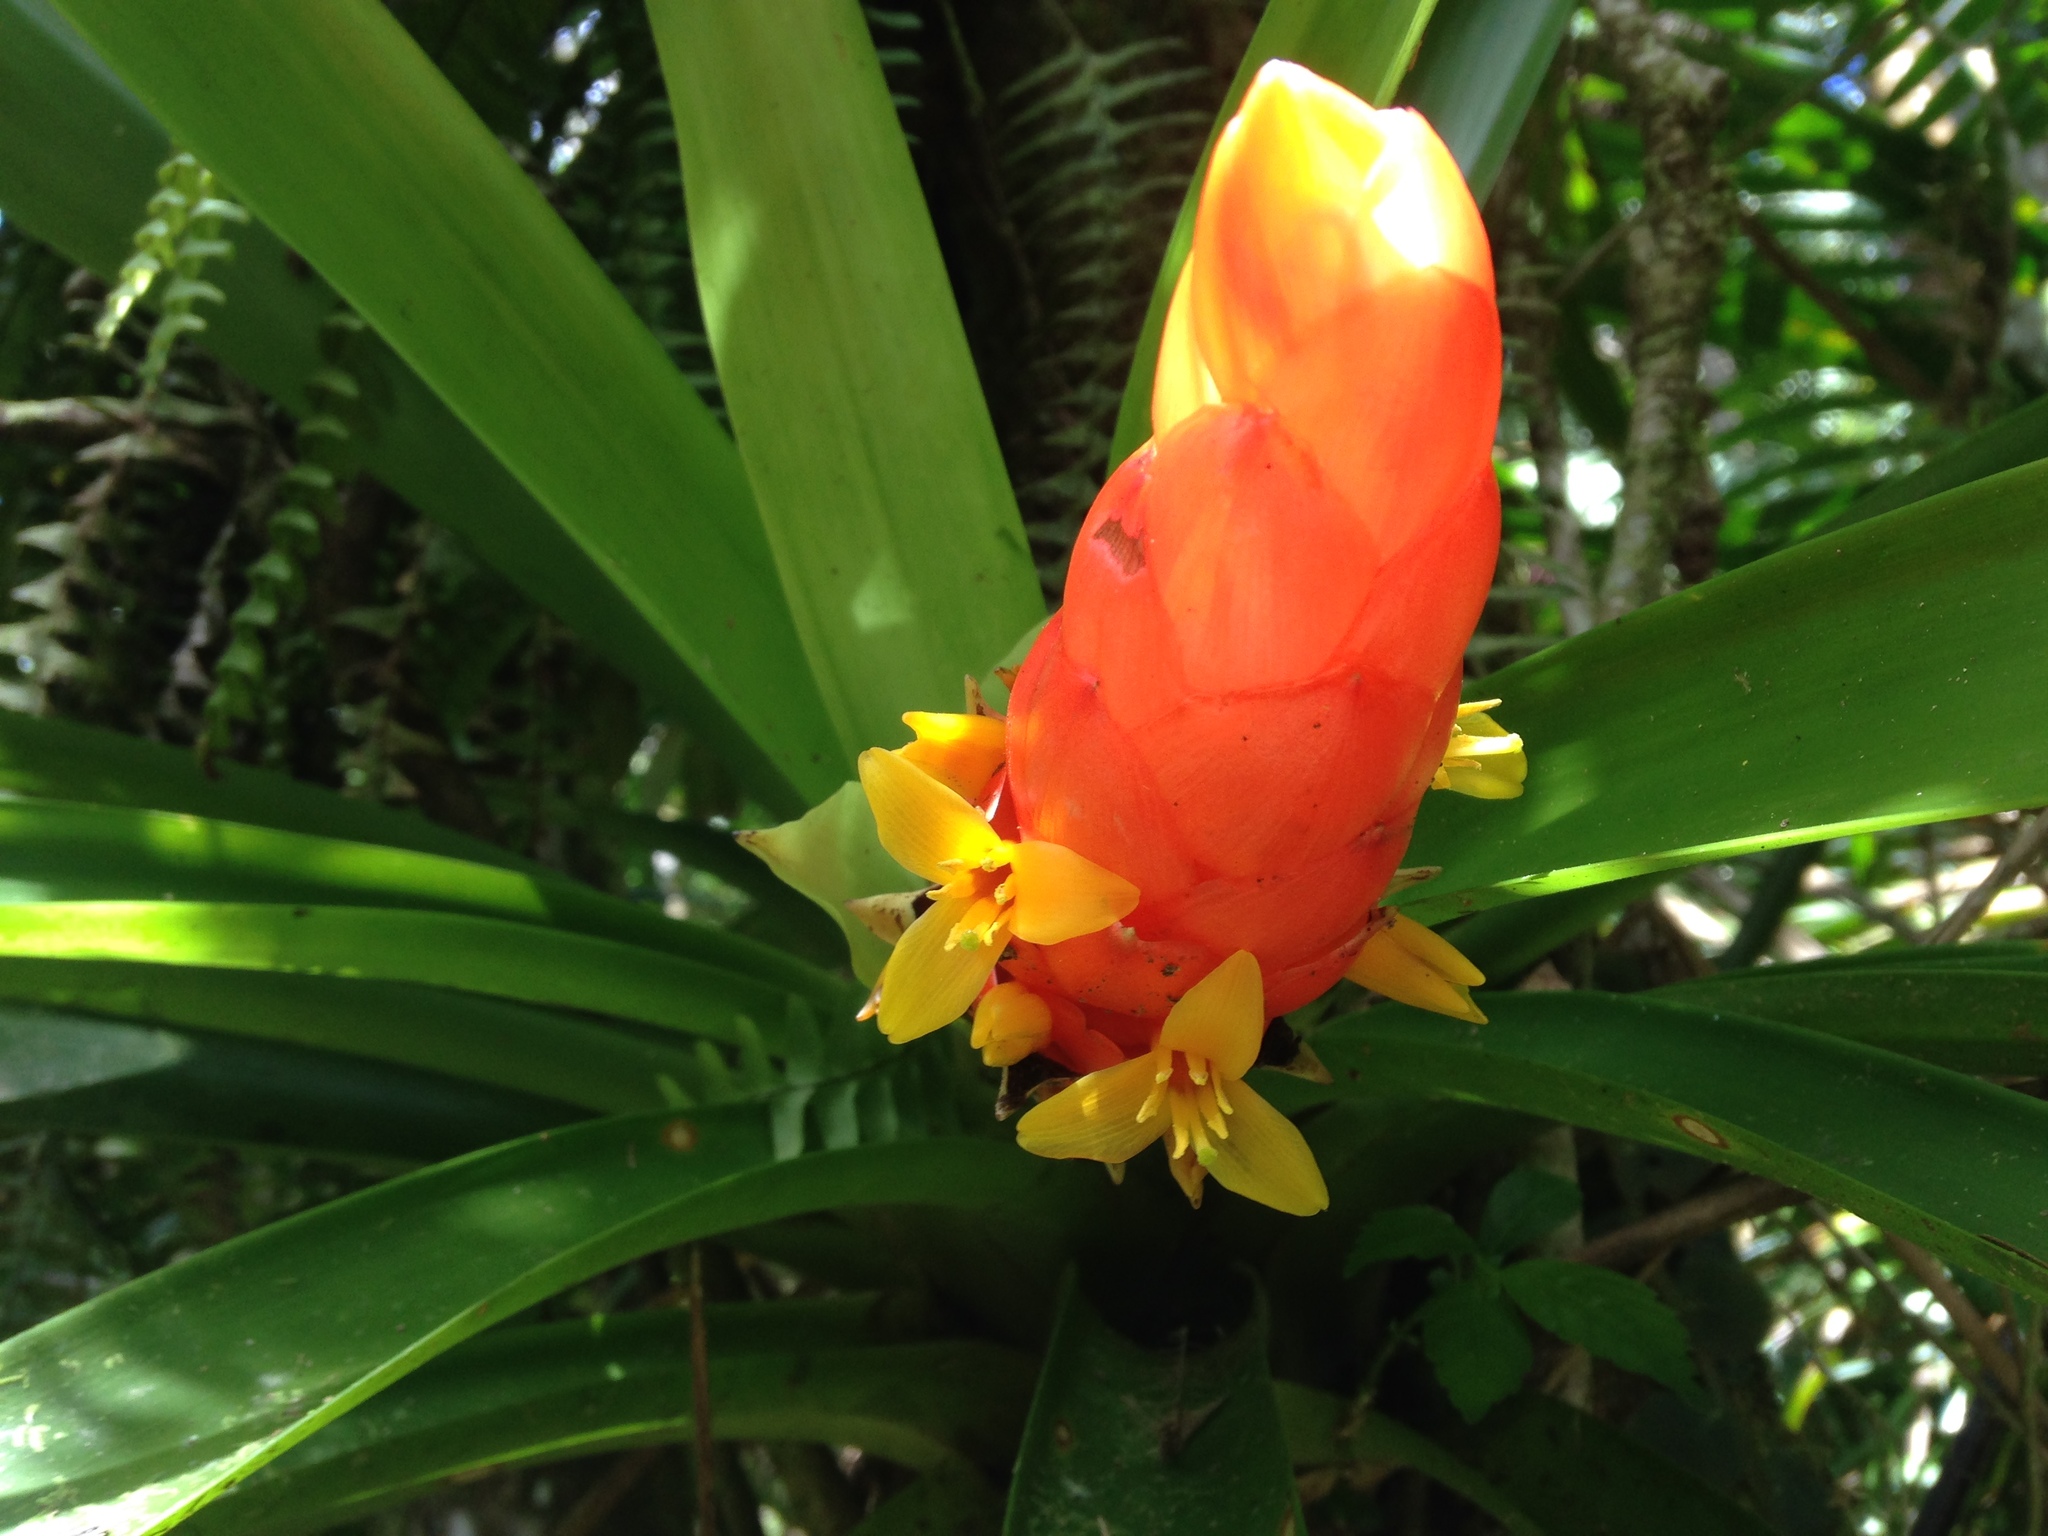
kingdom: Plantae
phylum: Tracheophyta
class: Liliopsida
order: Poales
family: Bromeliaceae
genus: Guzmania
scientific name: Guzmania berteroniana
